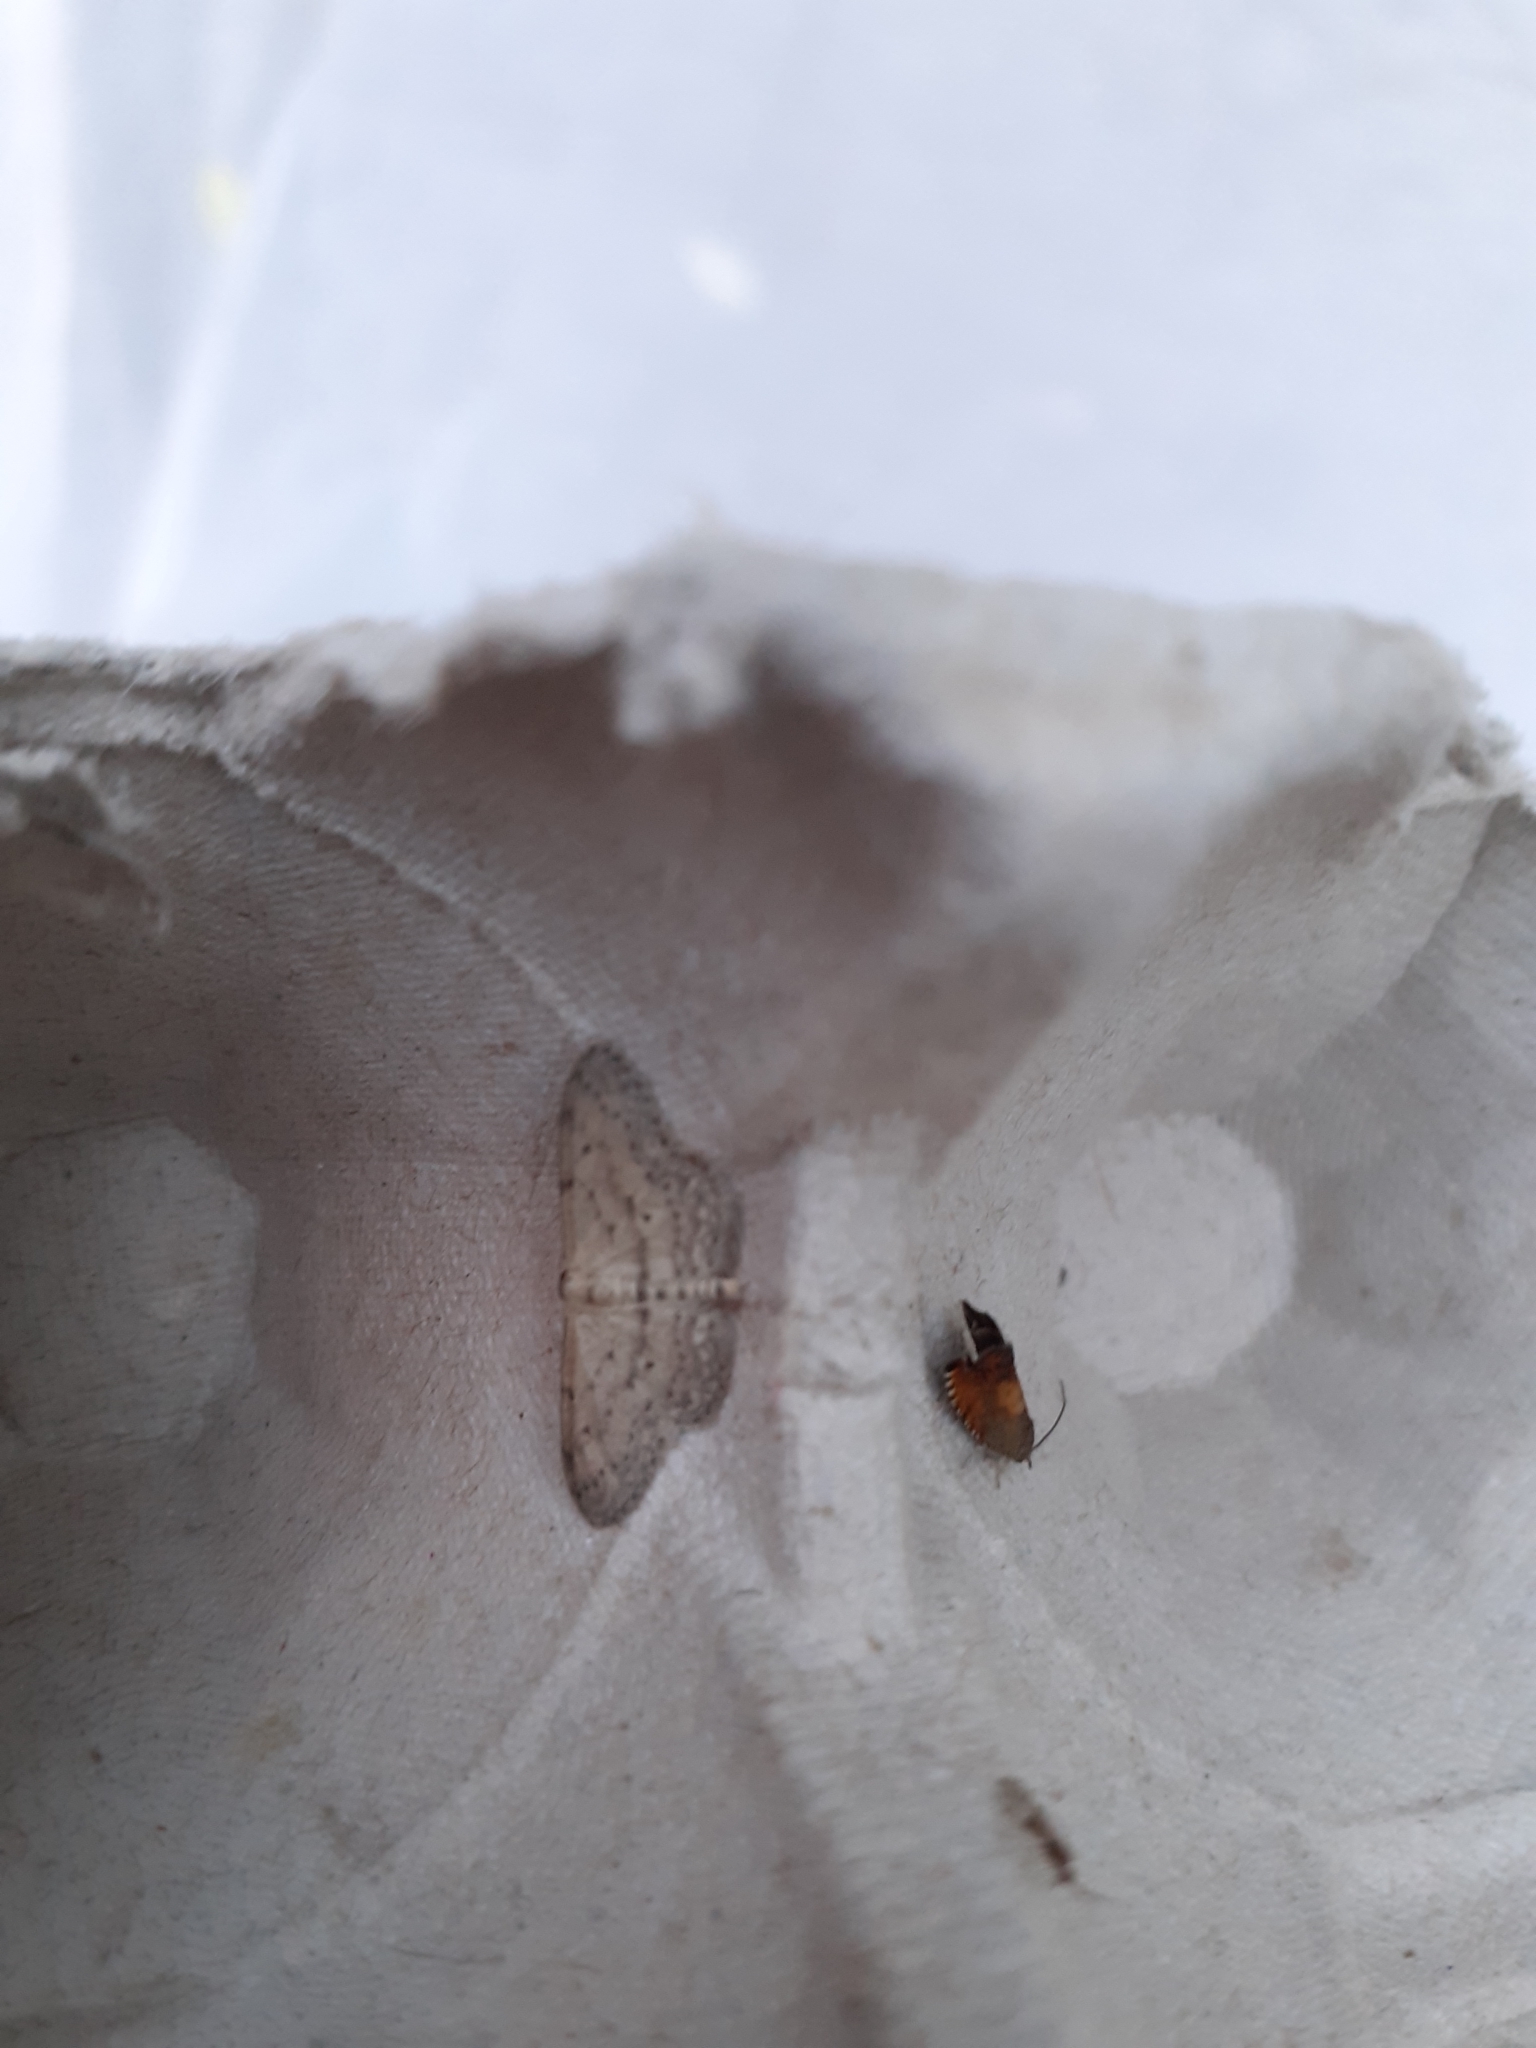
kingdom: Animalia
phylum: Arthropoda
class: Insecta
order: Lepidoptera
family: Geometridae
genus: Idaea
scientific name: Idaea seriata
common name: Small dusty wave
